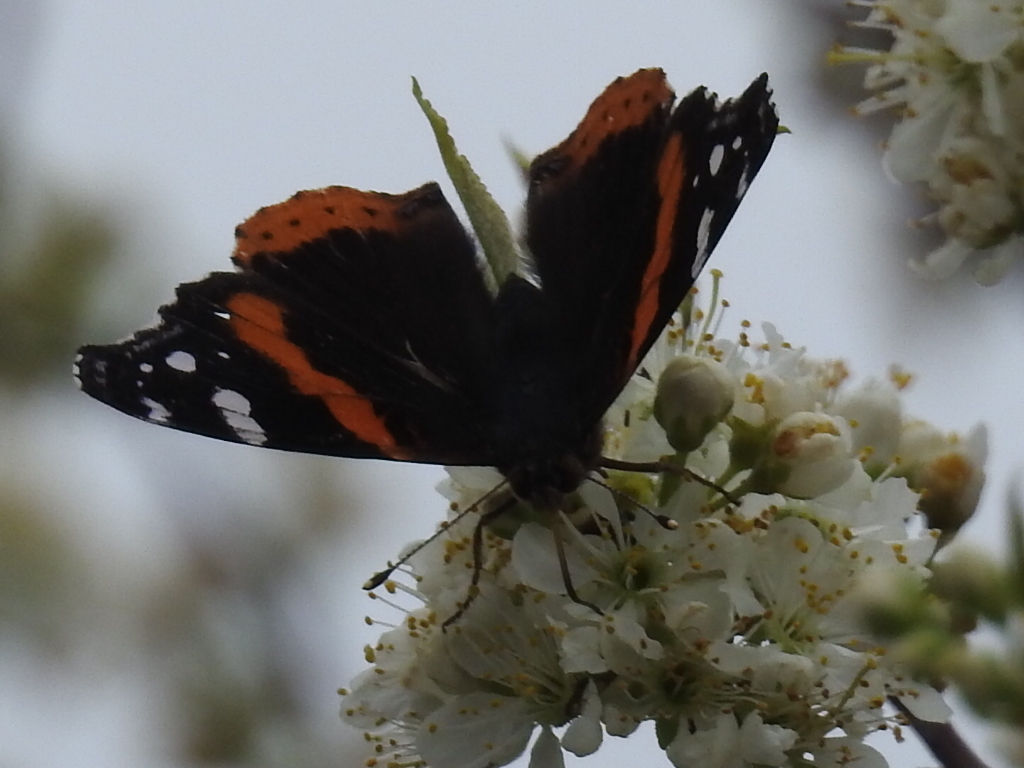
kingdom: Animalia
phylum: Arthropoda
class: Insecta
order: Lepidoptera
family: Nymphalidae
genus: Vanessa
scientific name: Vanessa atalanta
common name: Red admiral
